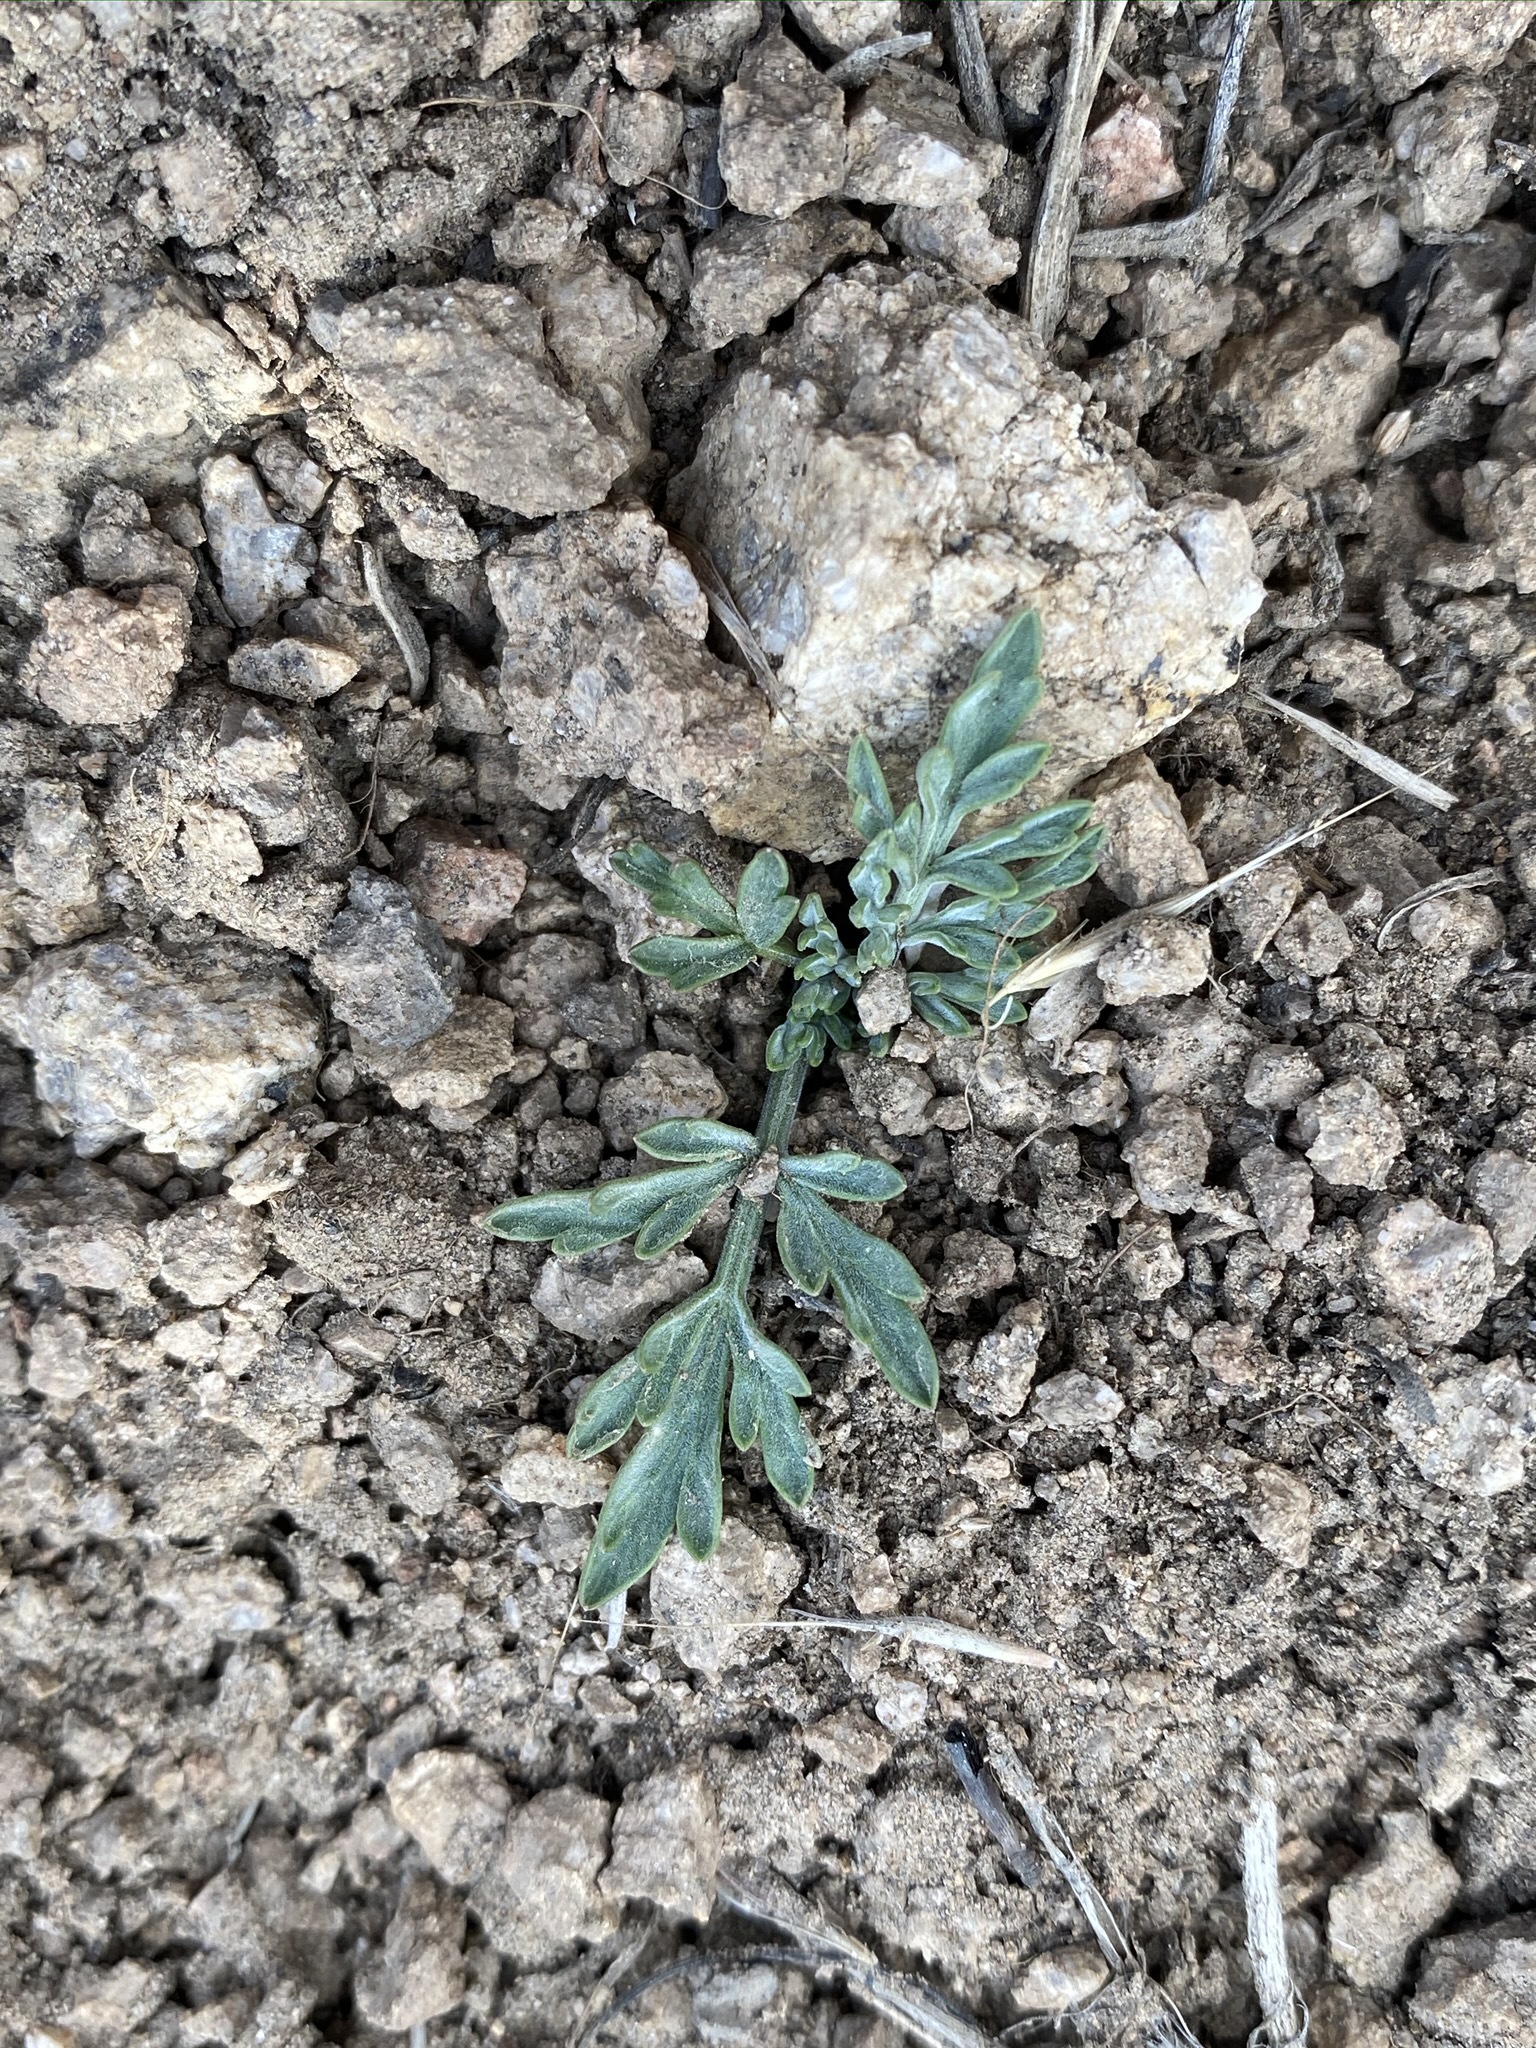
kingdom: Plantae
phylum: Tracheophyta
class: Magnoliopsida
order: Apiales
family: Apiaceae
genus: Lomatium
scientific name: Lomatium nevadense
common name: Nevada lomatium
